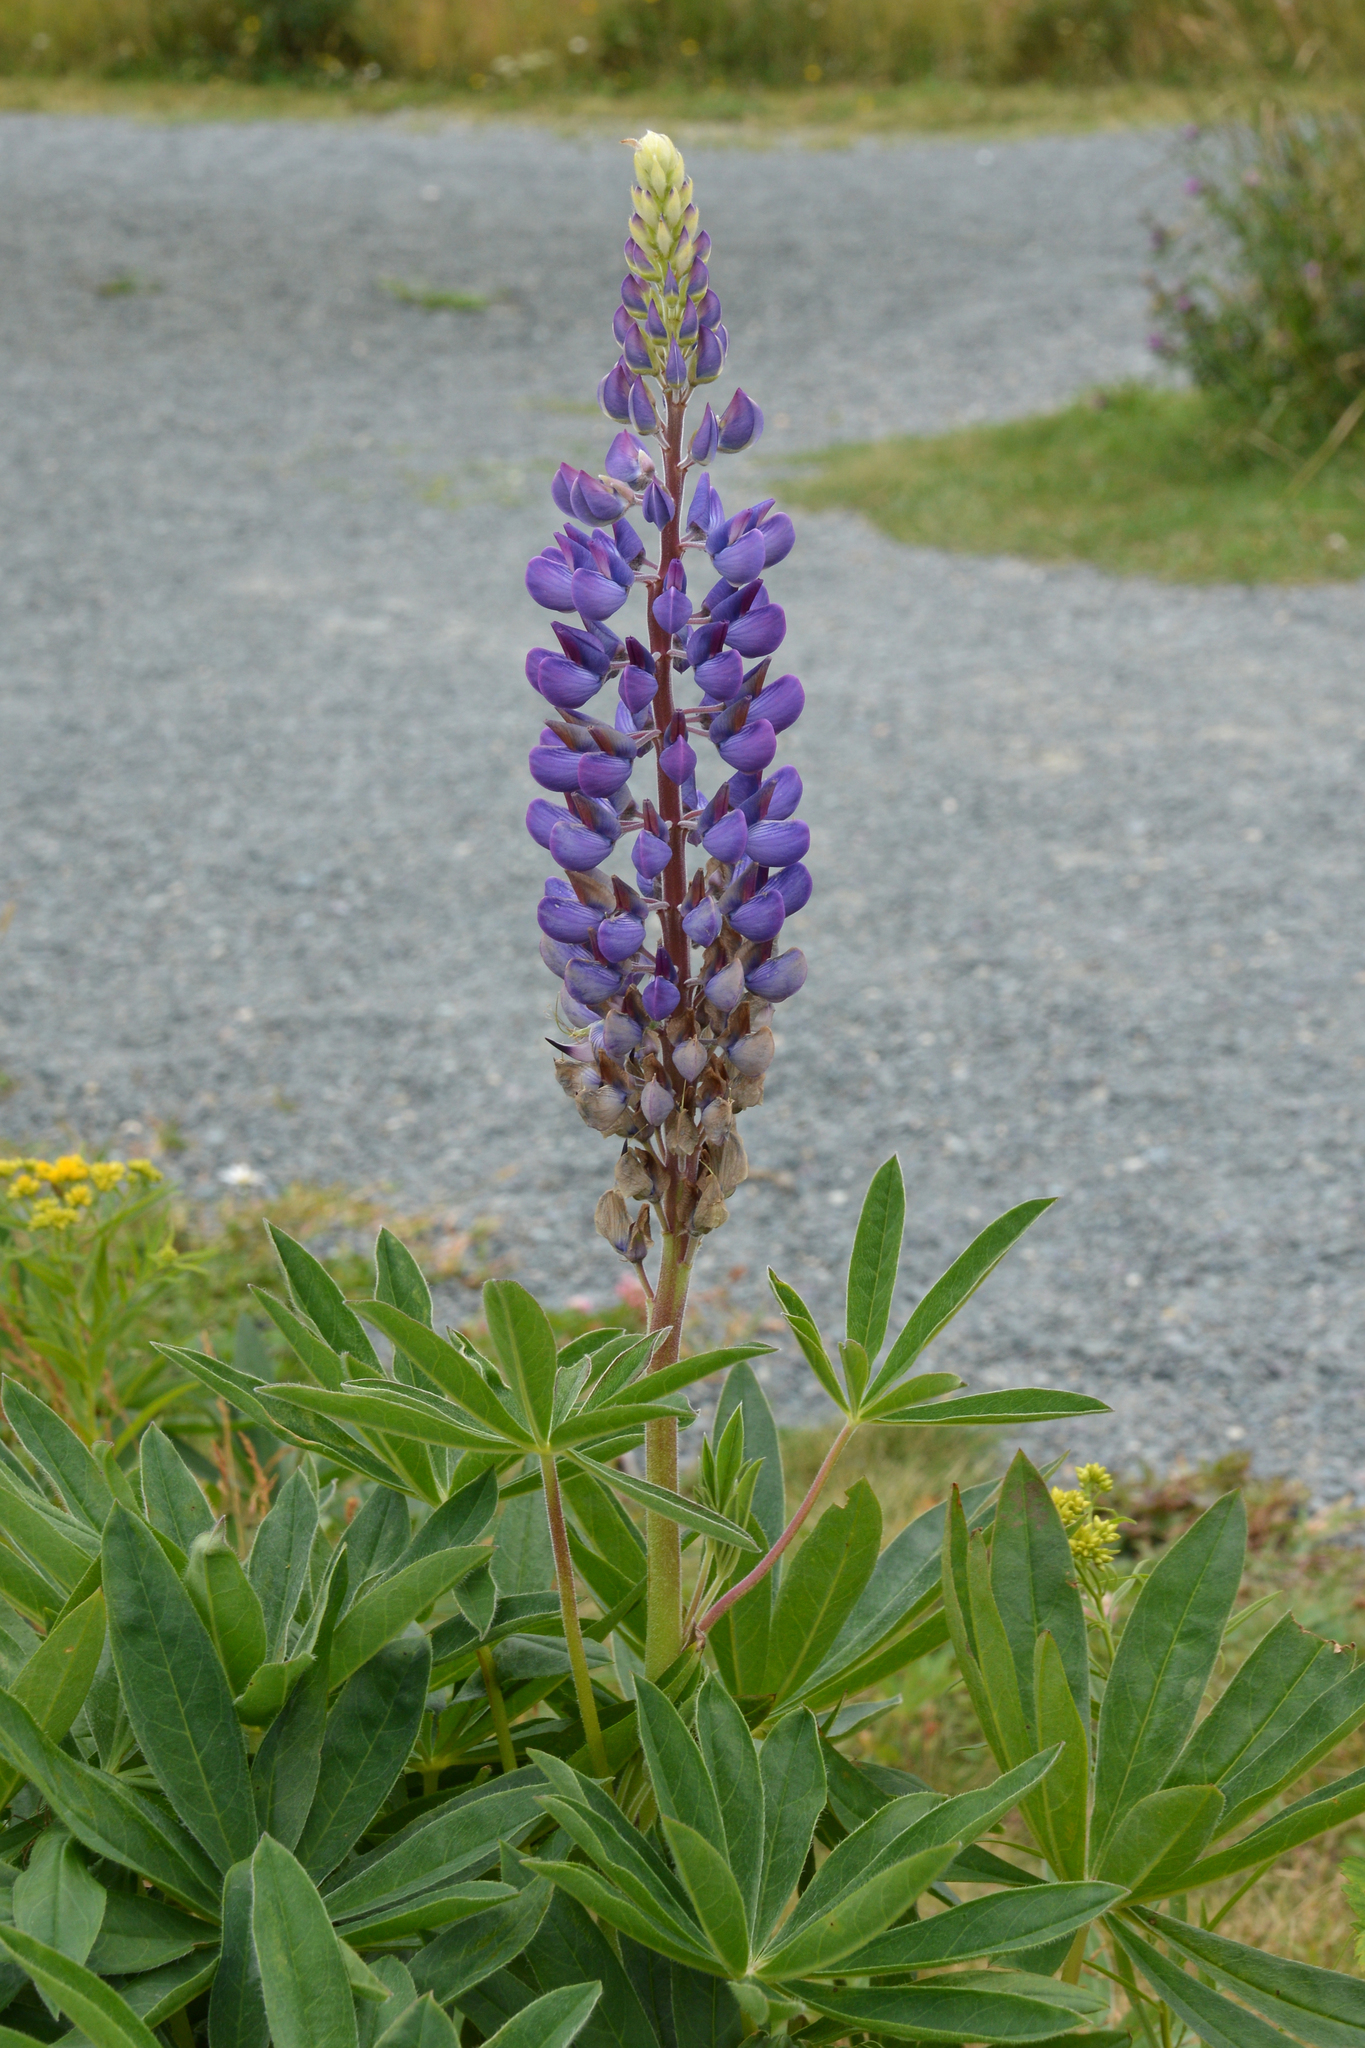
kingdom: Plantae
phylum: Tracheophyta
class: Magnoliopsida
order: Fabales
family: Fabaceae
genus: Lupinus
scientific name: Lupinus polyphyllus
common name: Garden lupin
